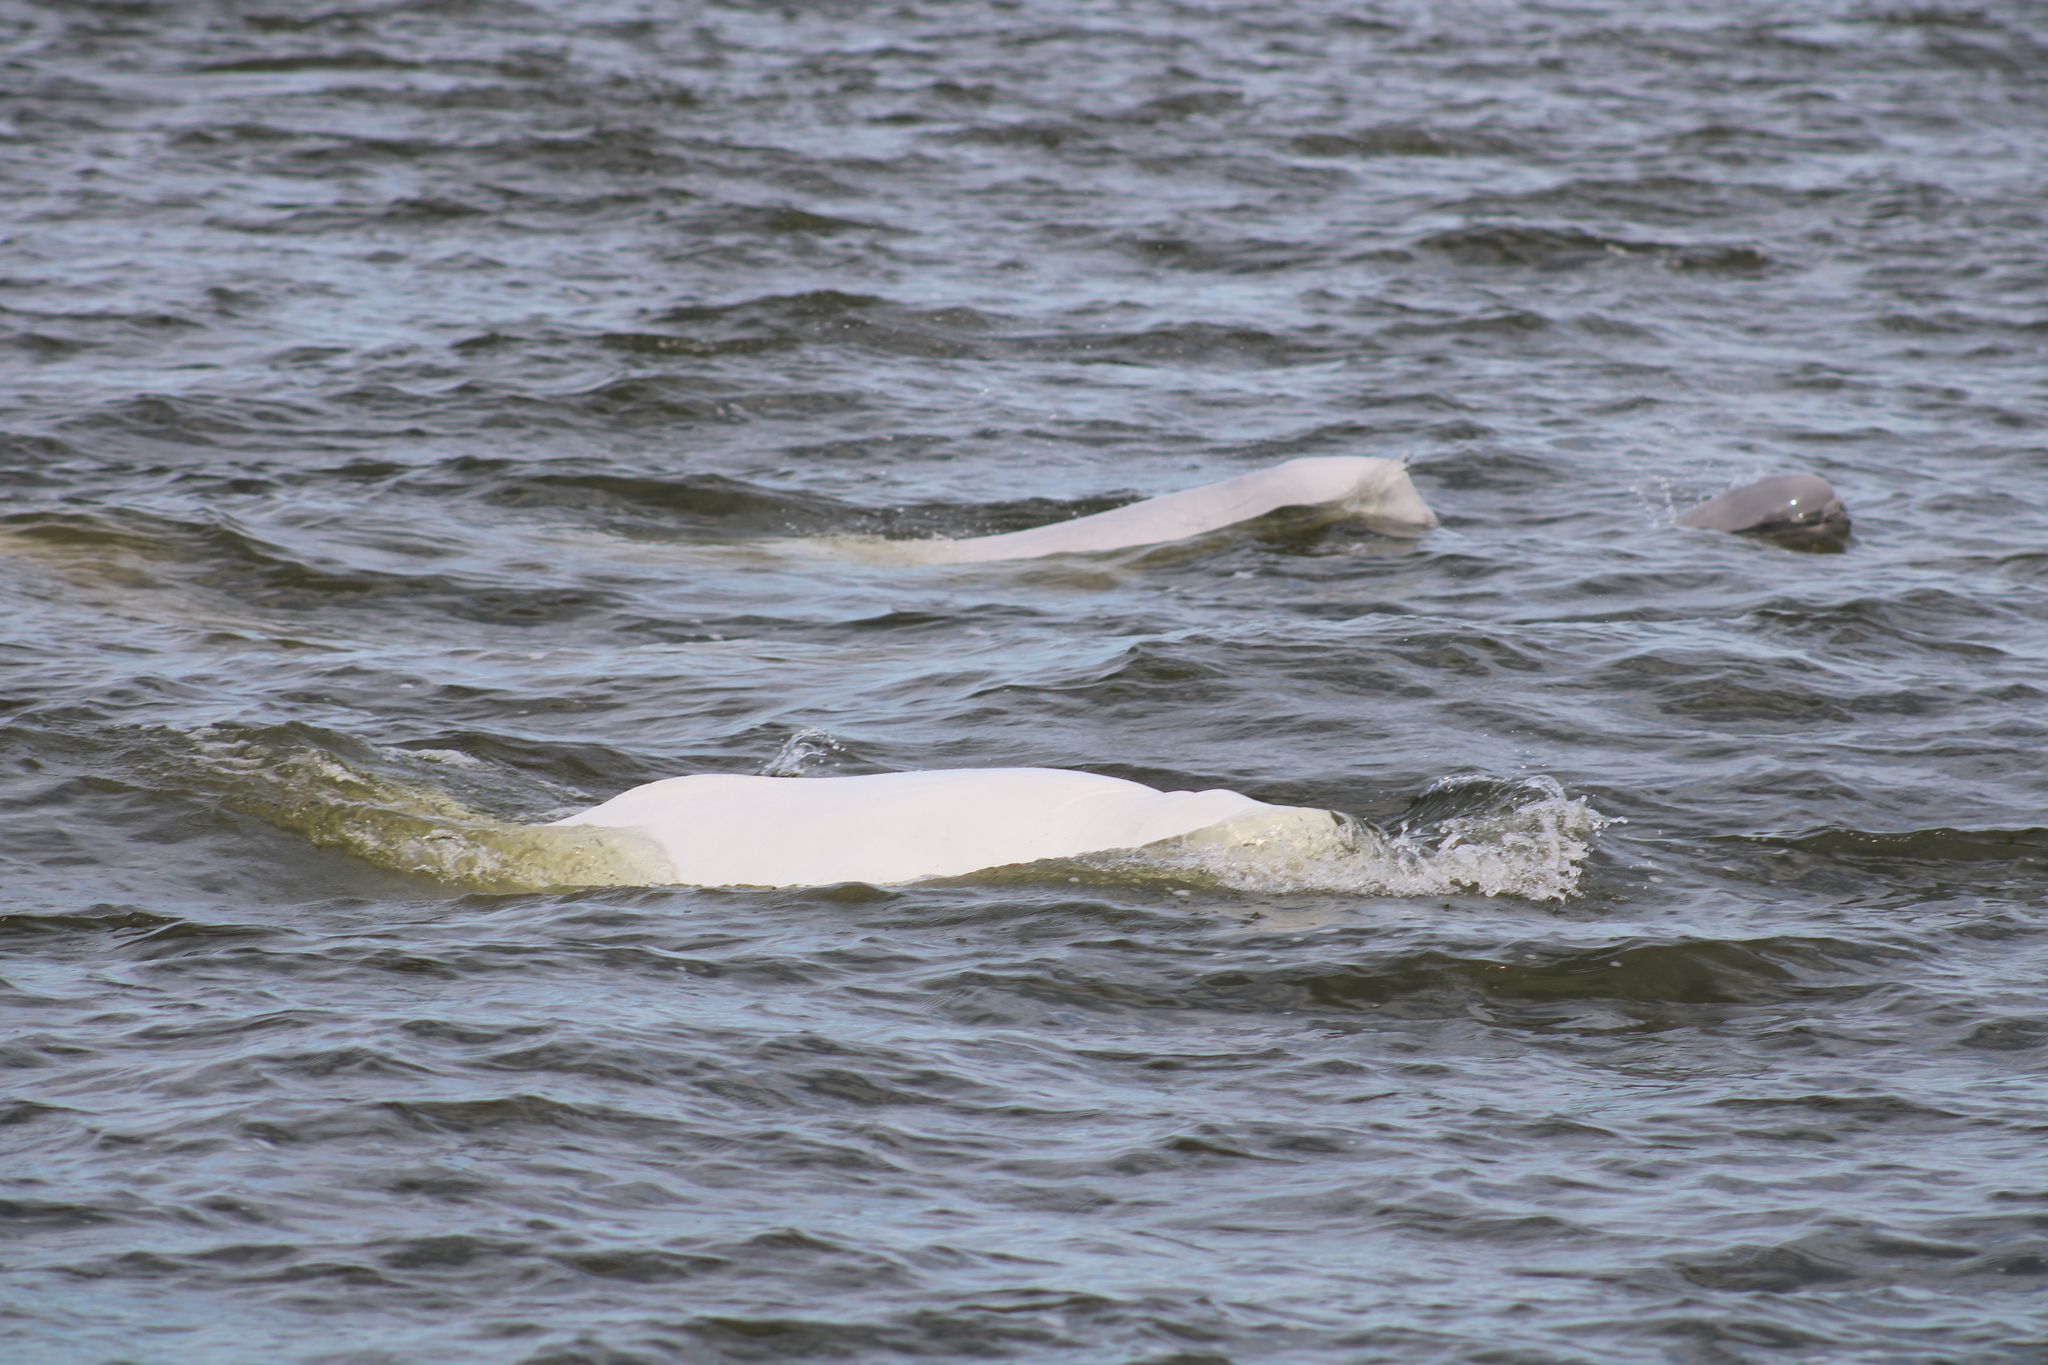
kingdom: Animalia
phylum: Chordata
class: Mammalia
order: Cetacea
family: Monodontidae
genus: Delphinapterus
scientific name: Delphinapterus leucas
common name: Beluga
